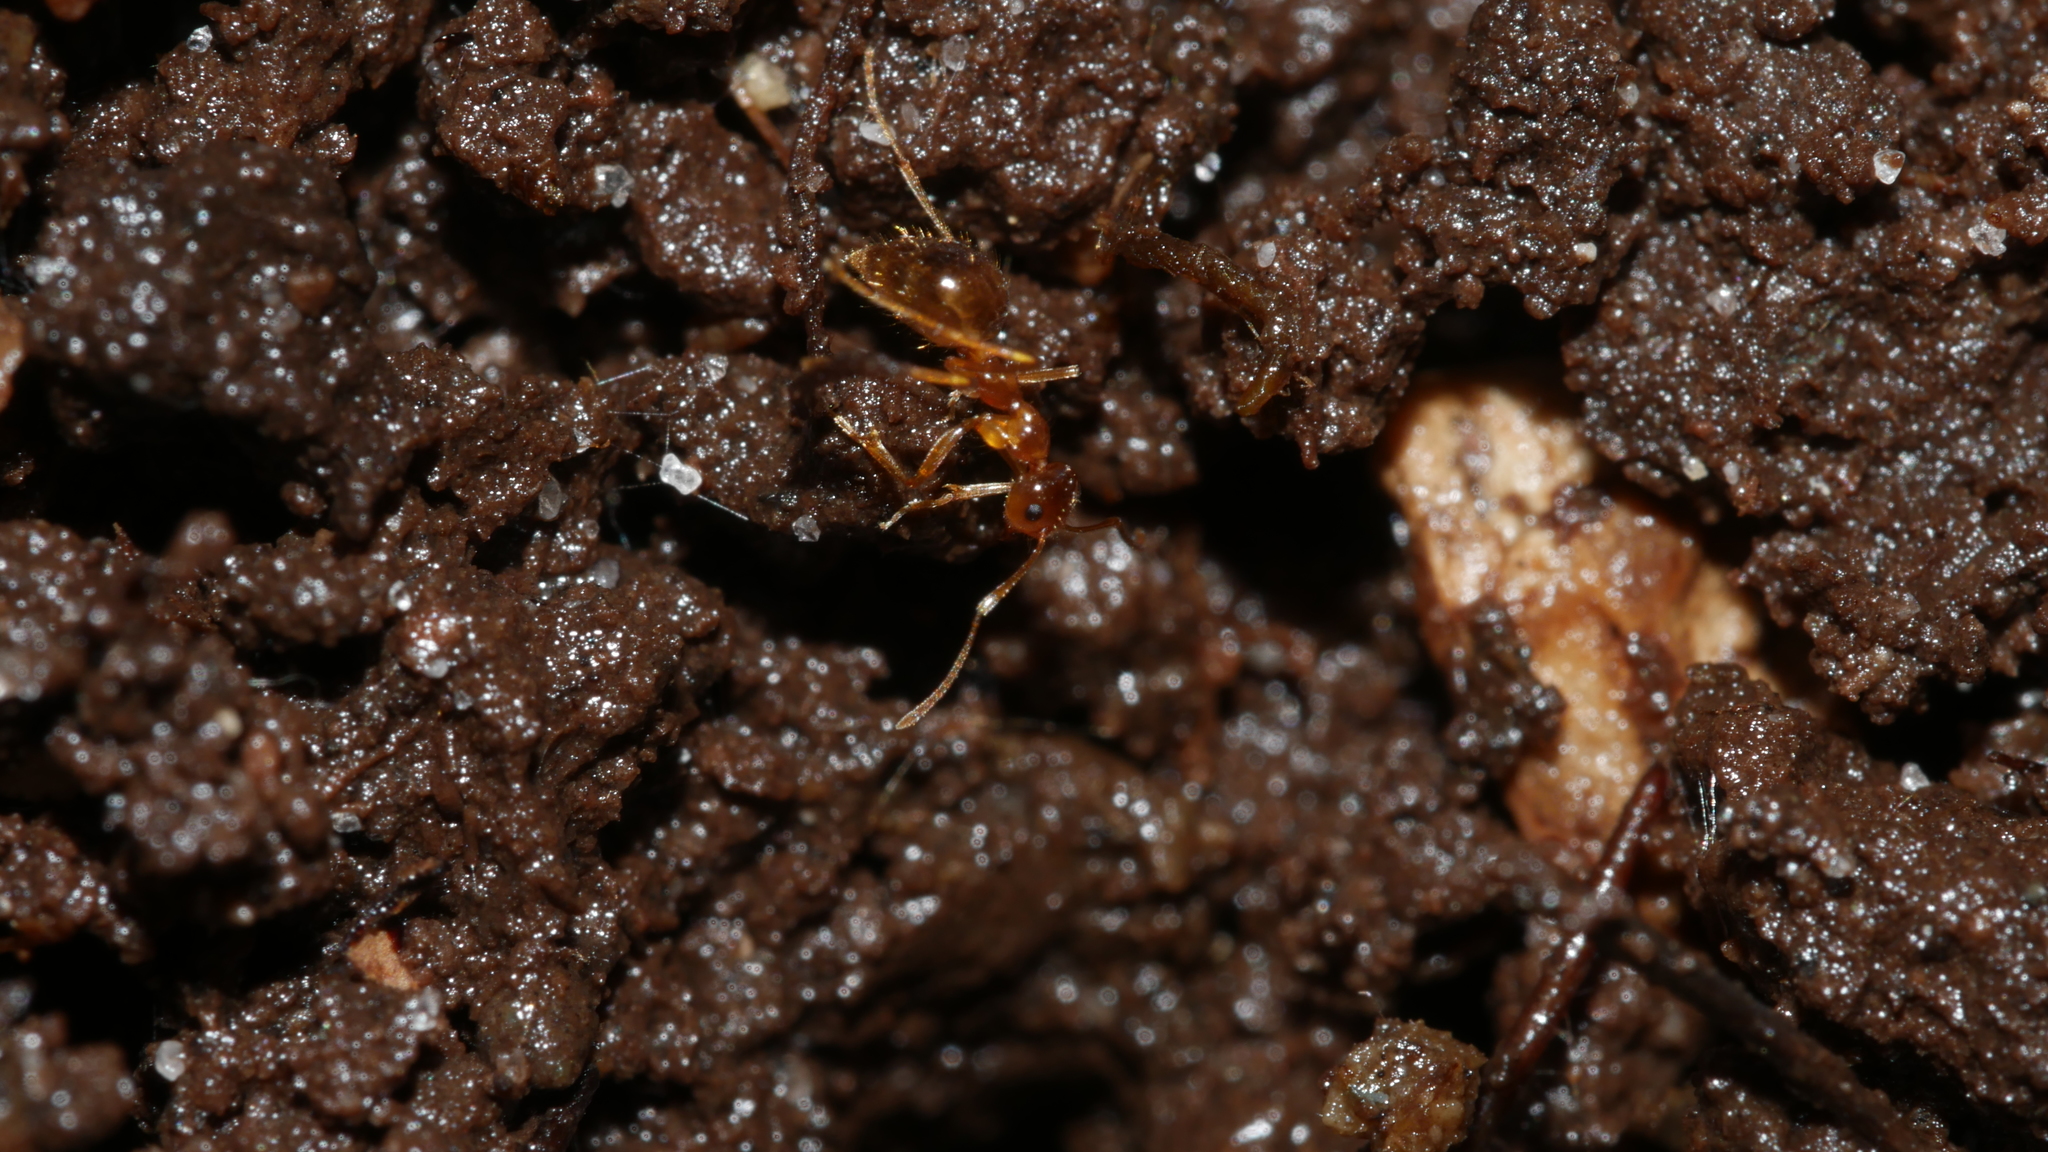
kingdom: Animalia
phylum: Arthropoda
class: Insecta
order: Hymenoptera
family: Formicidae
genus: Prenolepis
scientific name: Prenolepis imparis
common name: Small honey ant
